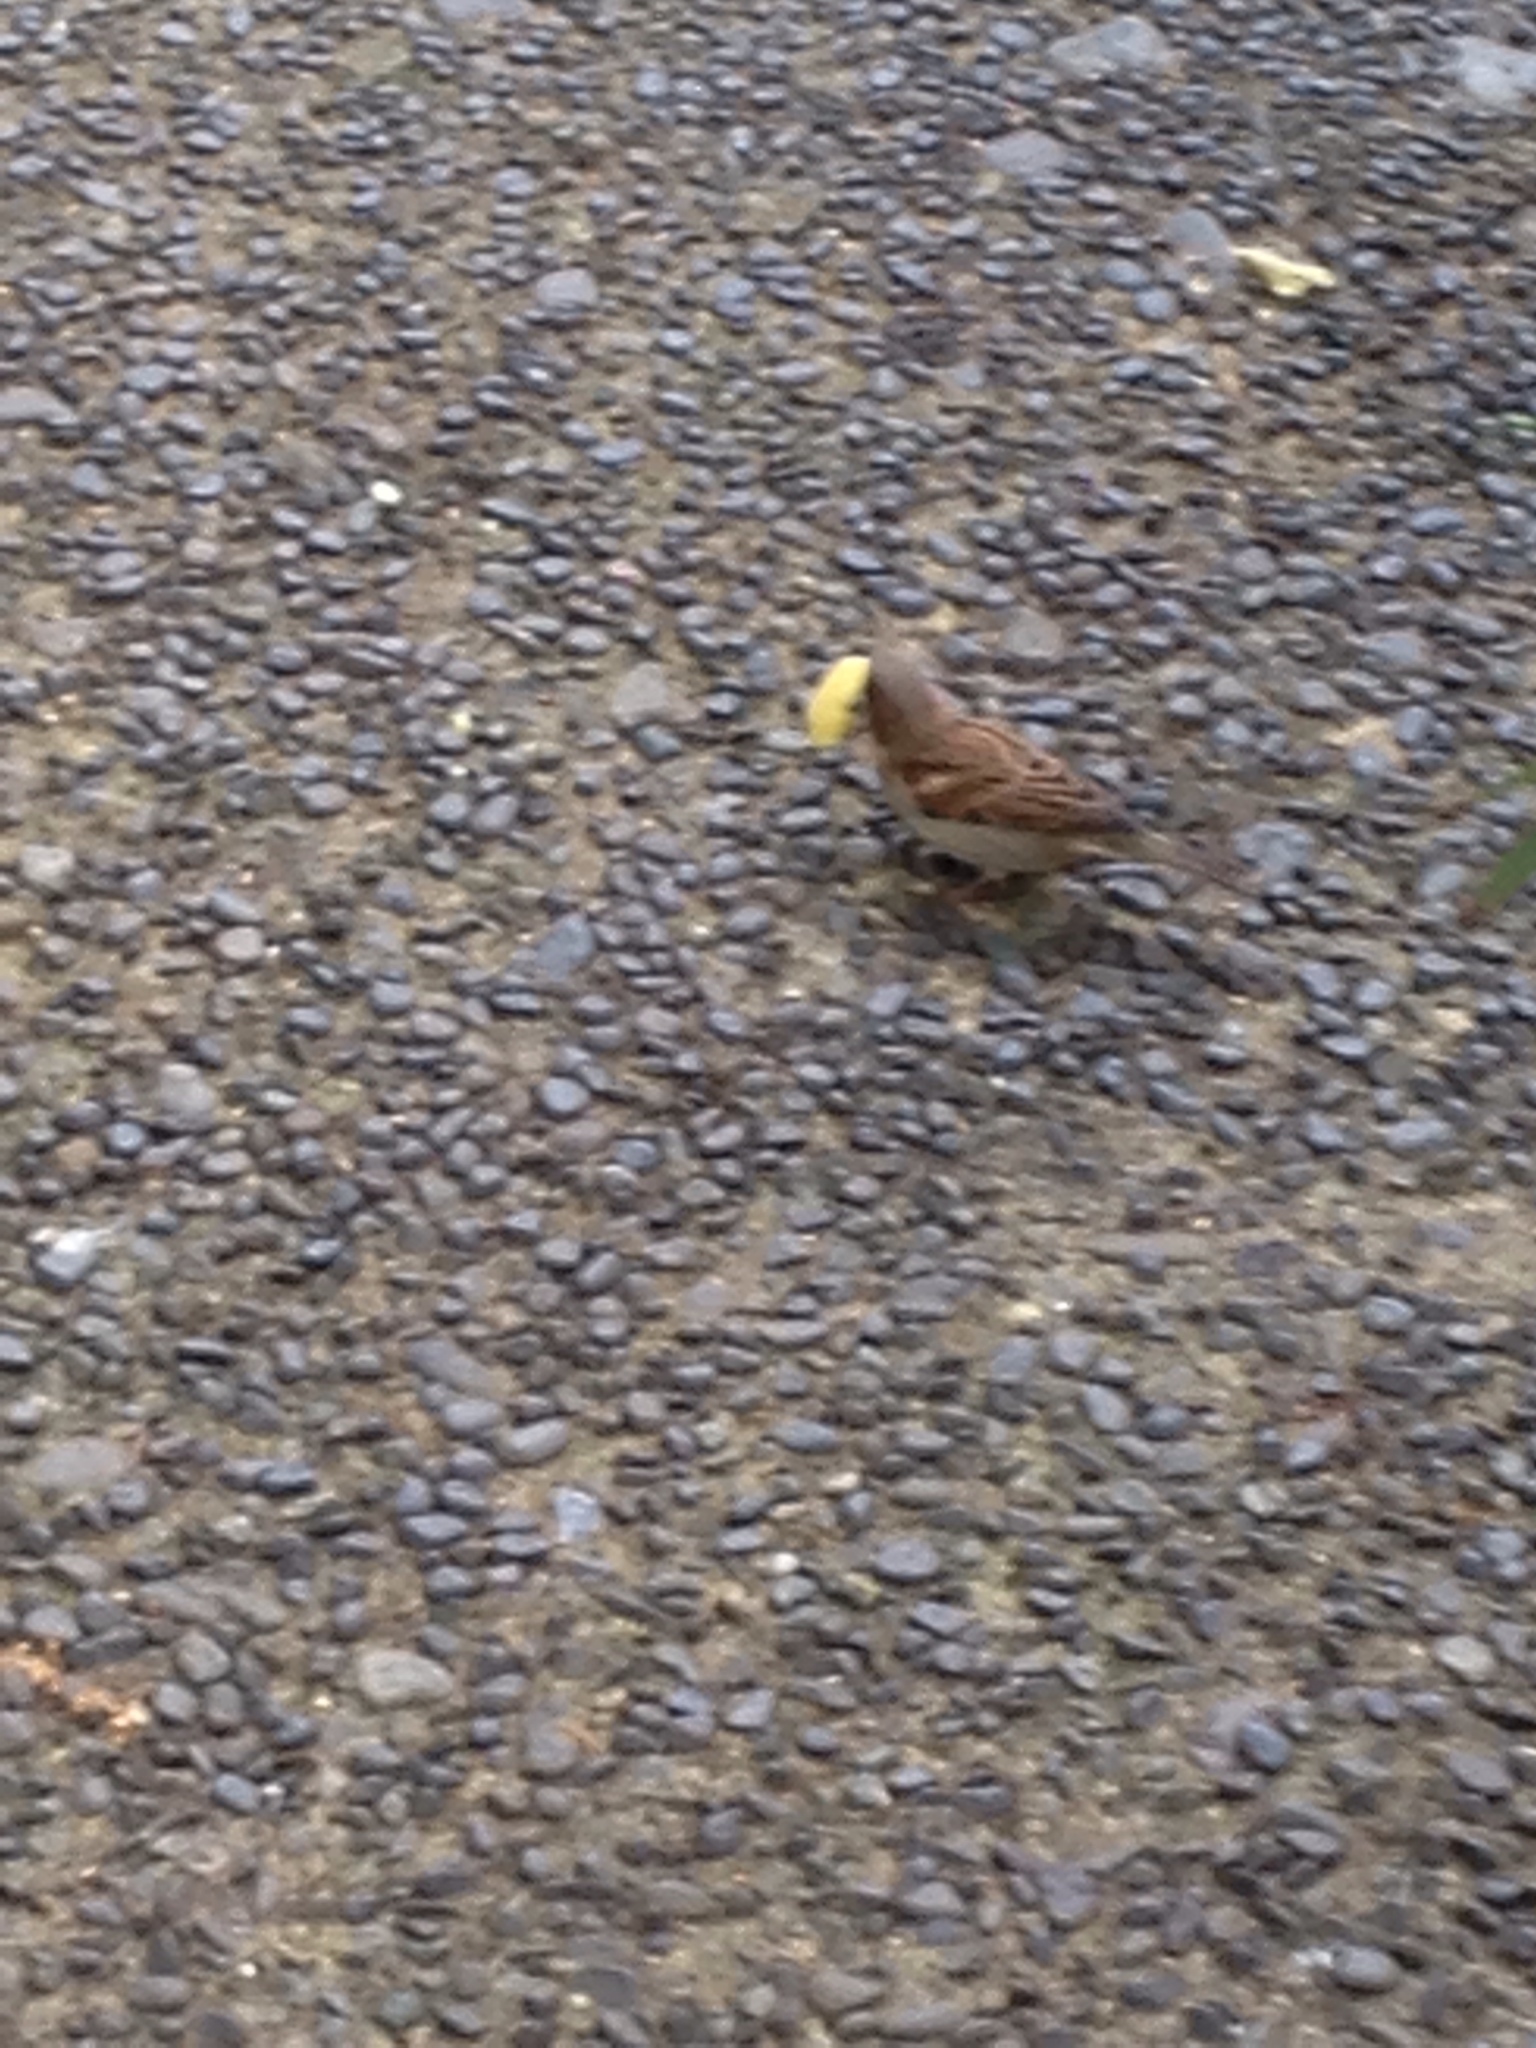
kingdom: Animalia
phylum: Chordata
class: Aves
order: Passeriformes
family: Passeridae
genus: Passer
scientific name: Passer domesticus
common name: House sparrow
